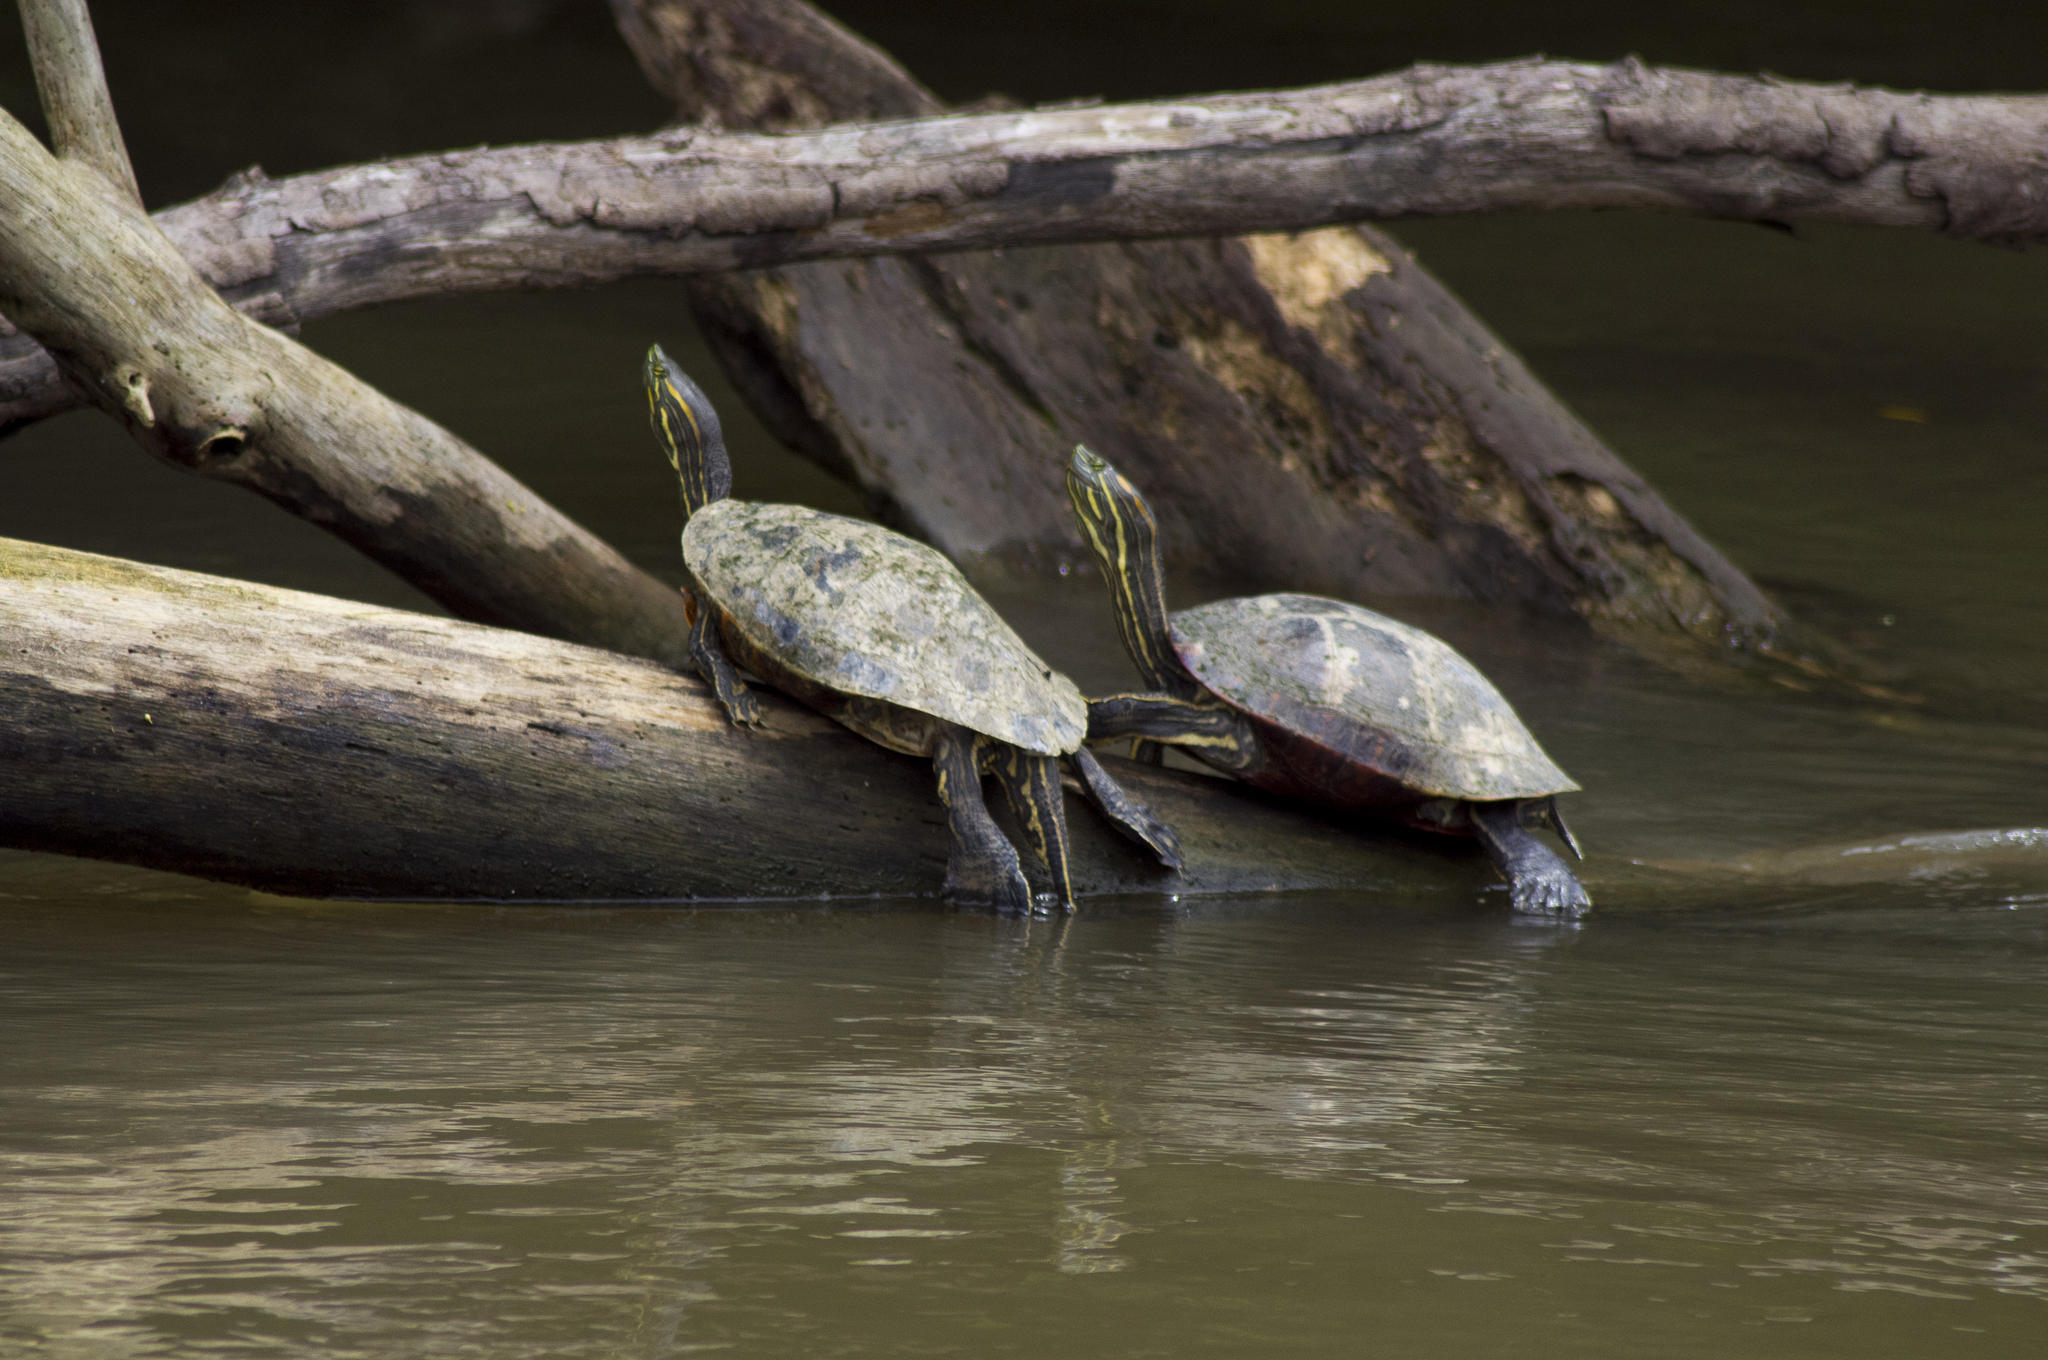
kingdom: Animalia
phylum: Chordata
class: Testudines
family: Emydidae
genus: Trachemys
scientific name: Trachemys venusta
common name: Mesoamerican slider
